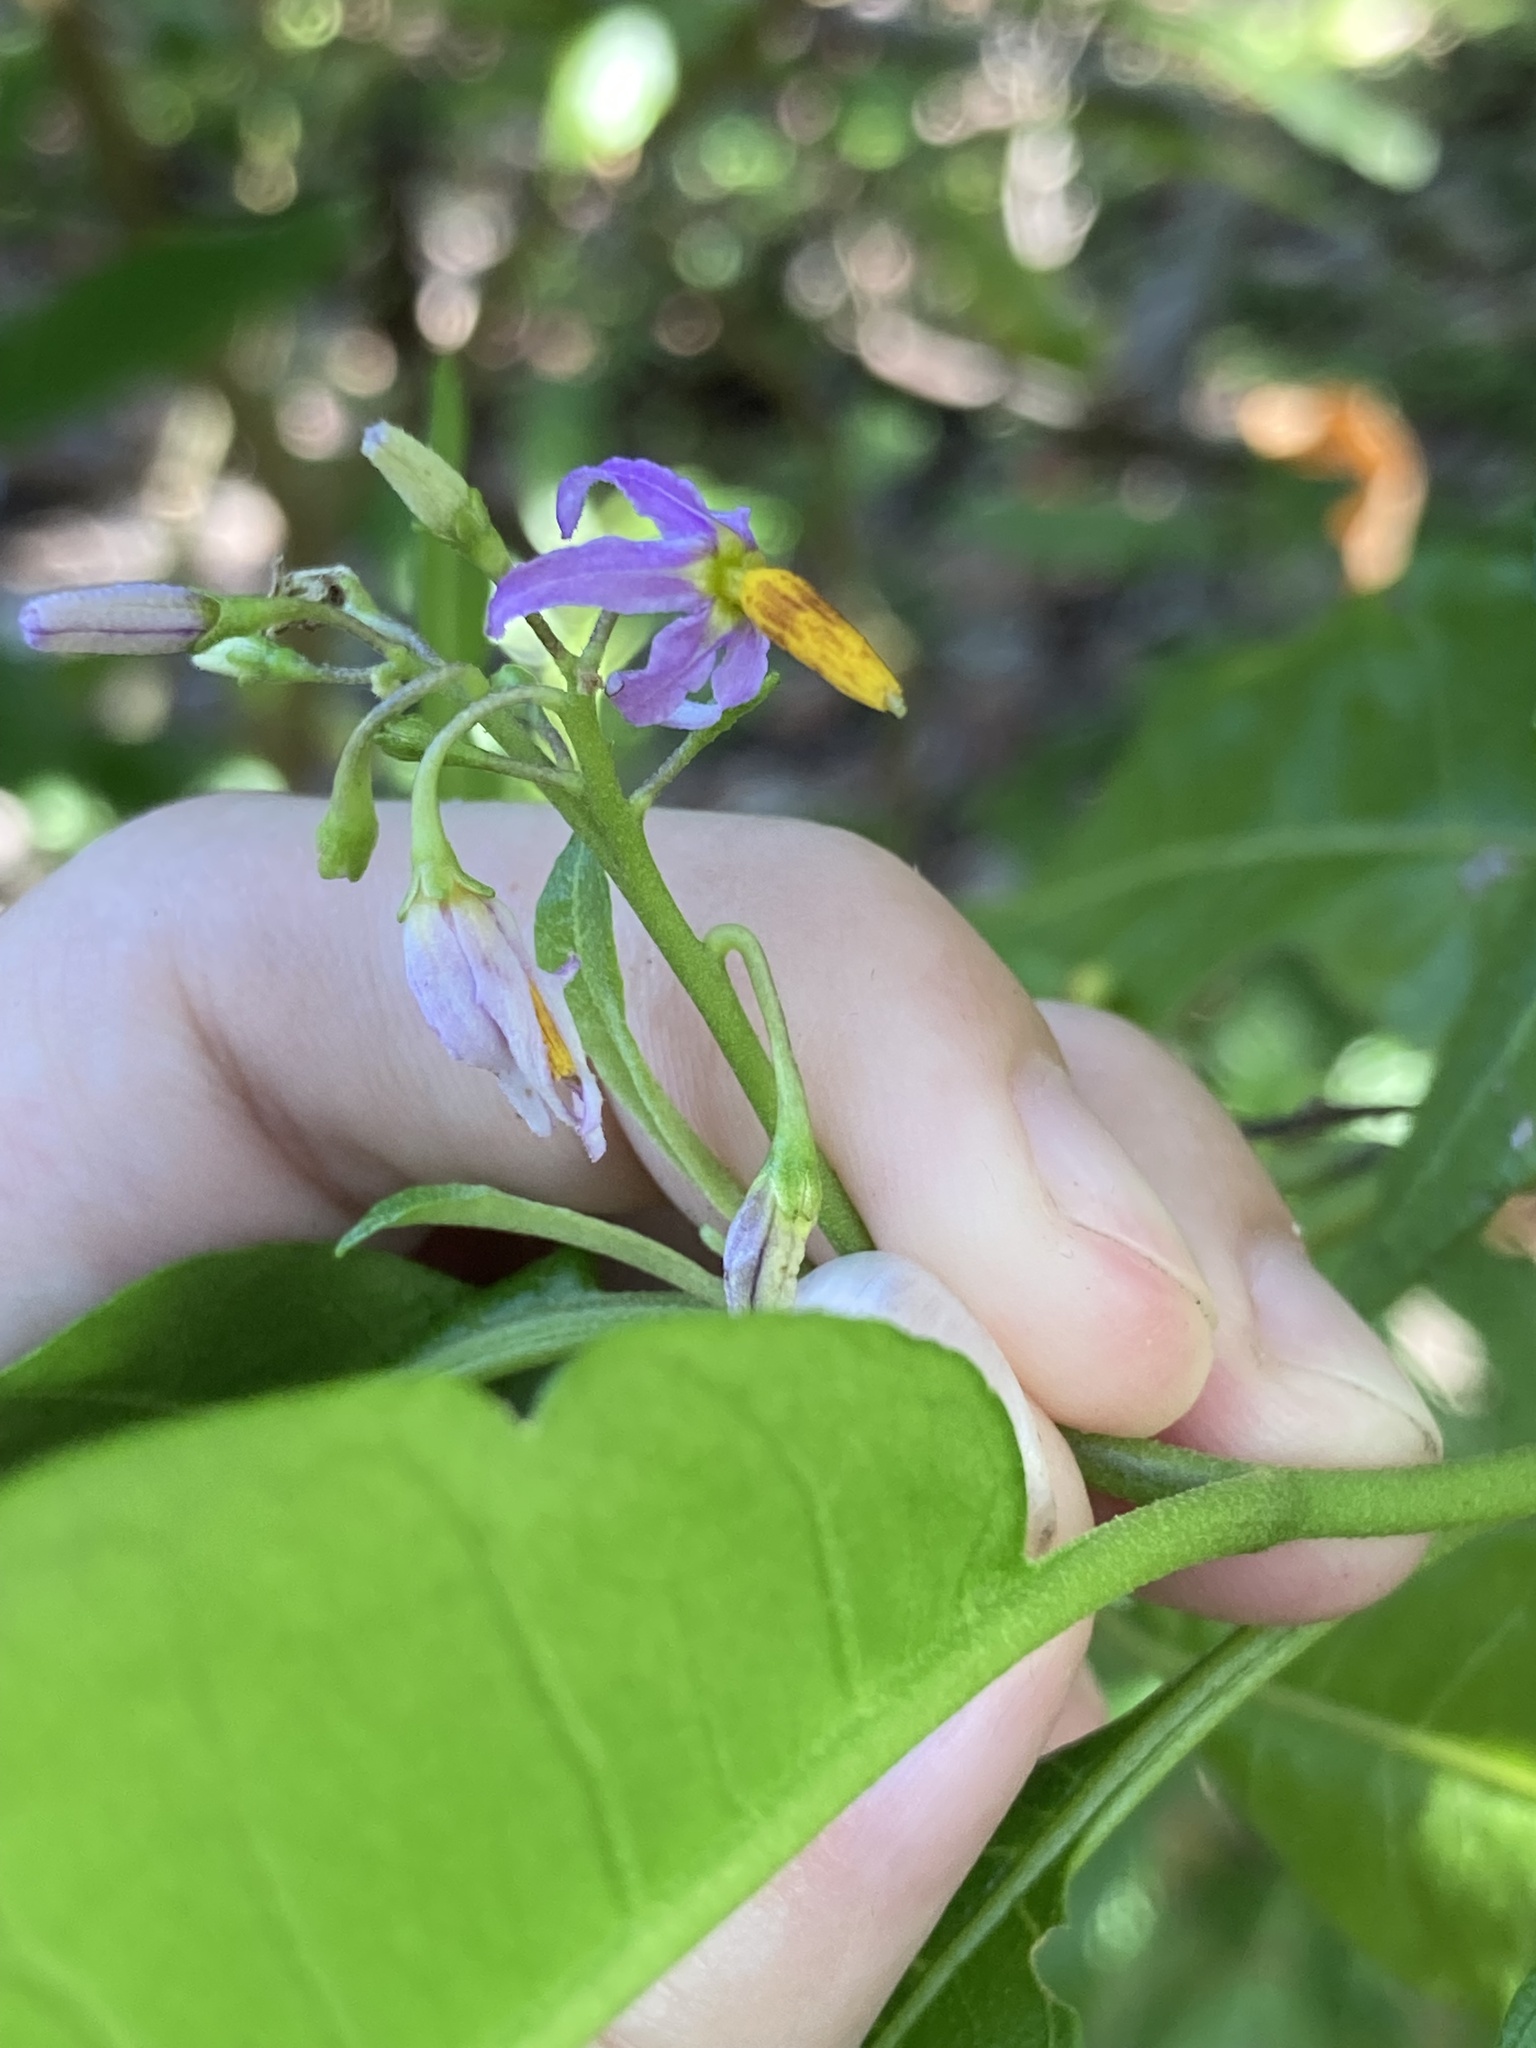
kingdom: Plantae
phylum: Tracheophyta
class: Magnoliopsida
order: Solanales
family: Solanaceae
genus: Solanum
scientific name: Solanum bahamense
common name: Canker-berry
